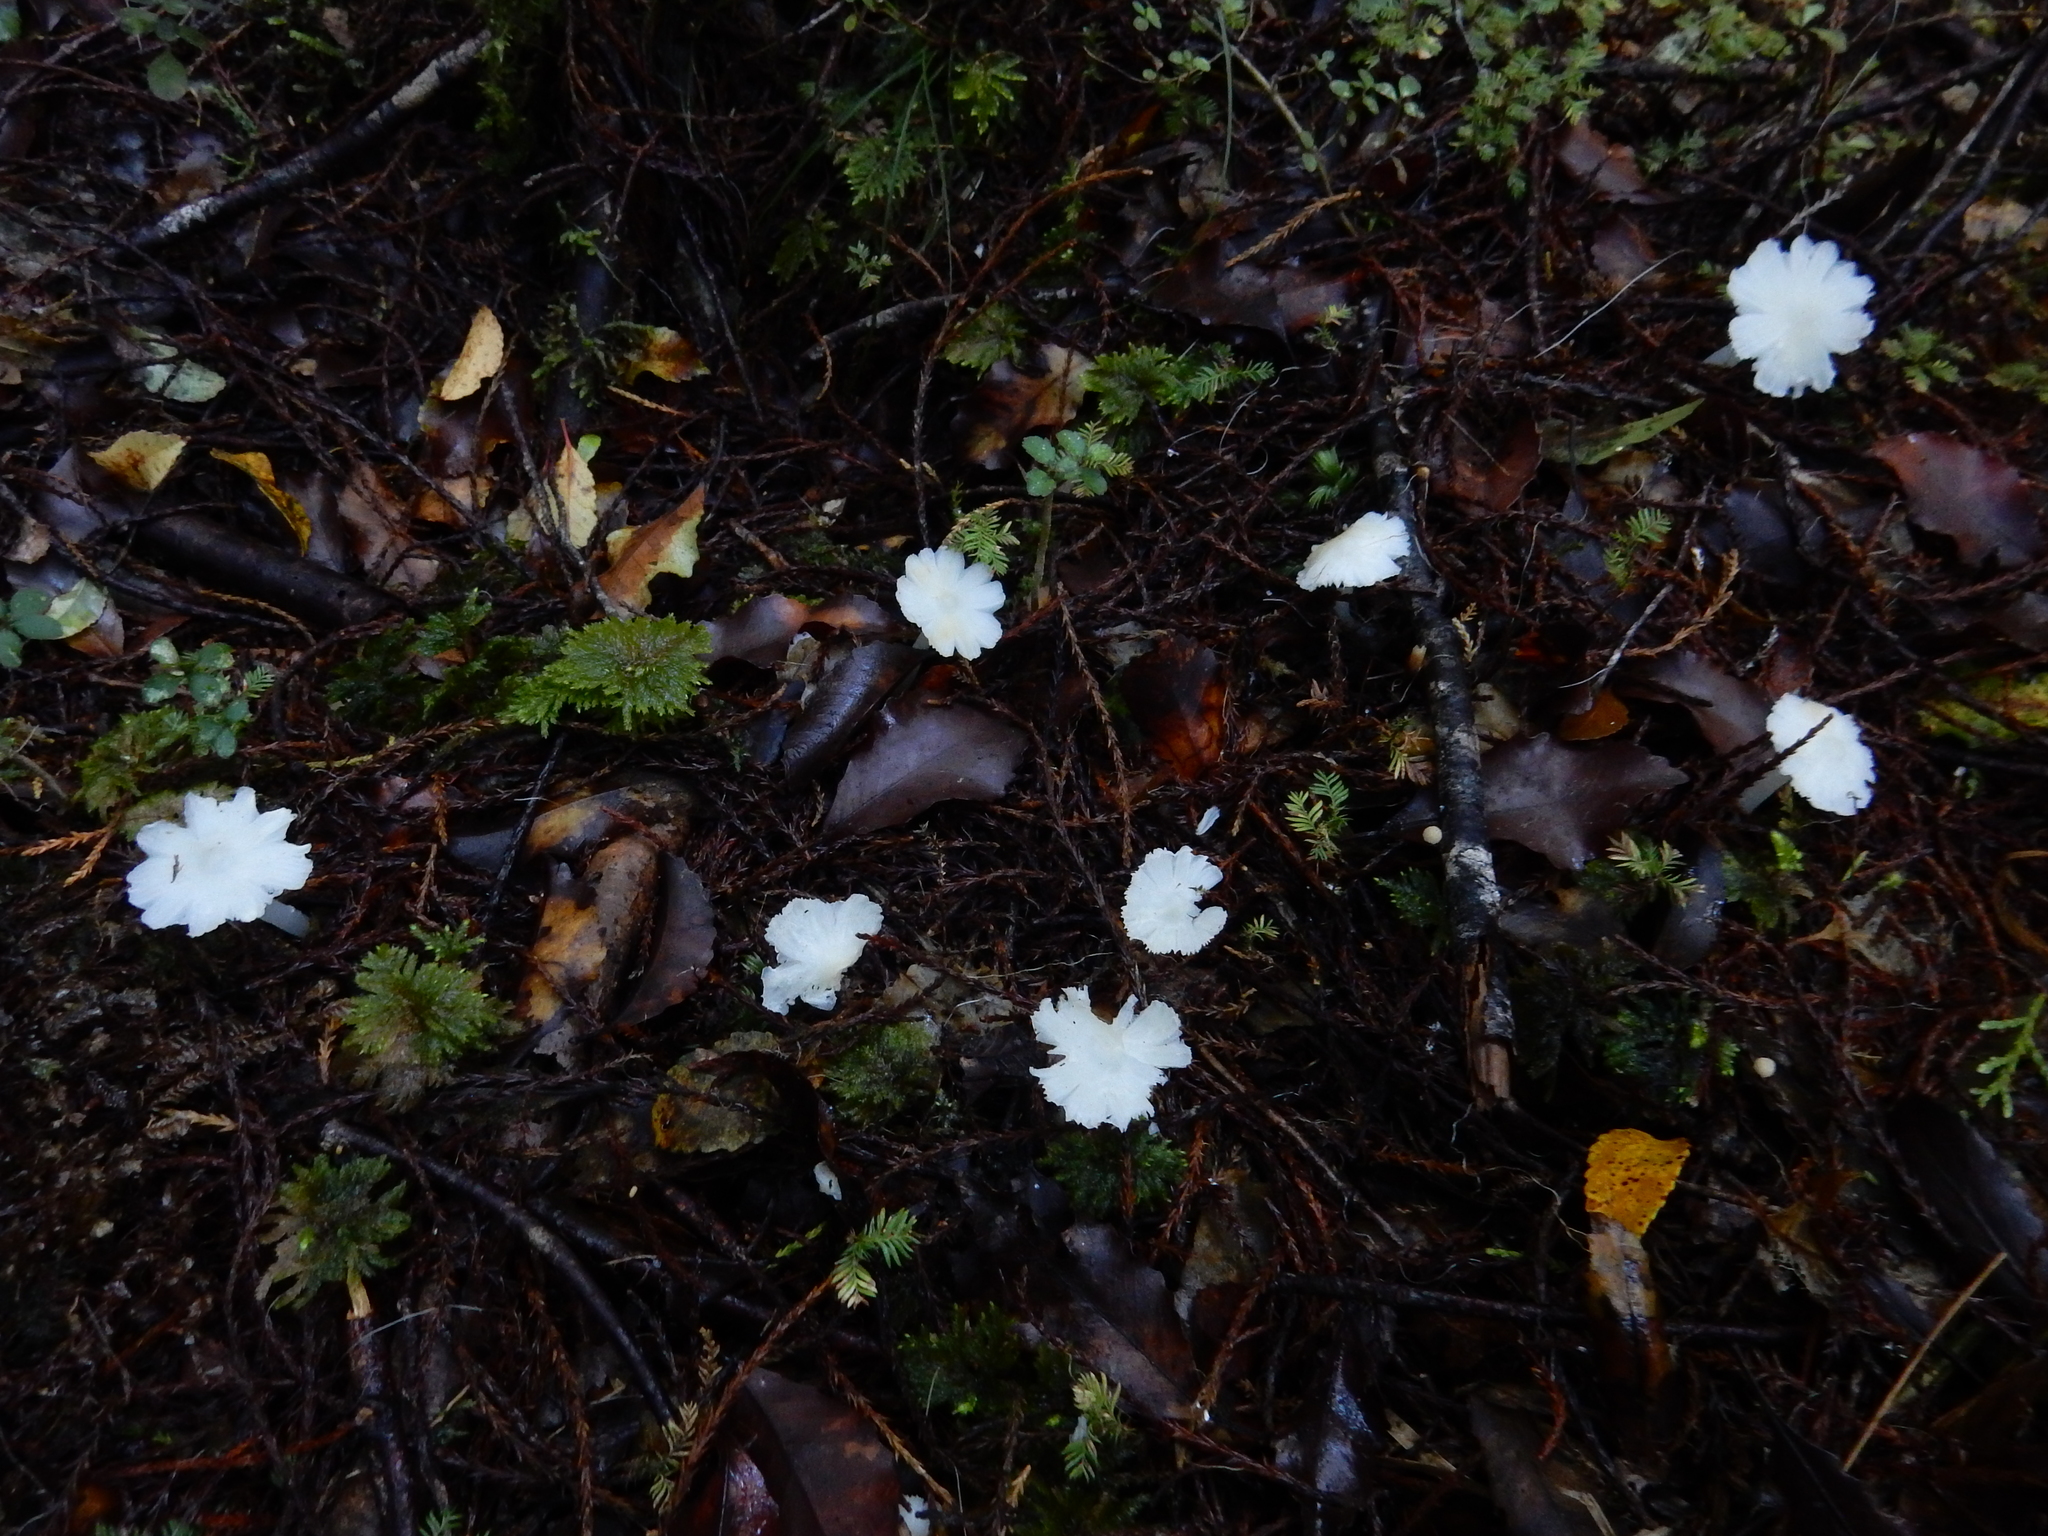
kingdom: Fungi
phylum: Basidiomycota
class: Agaricomycetes
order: Agaricales
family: Hygrophoraceae
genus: Humidicutis
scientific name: Humidicutis mavis
